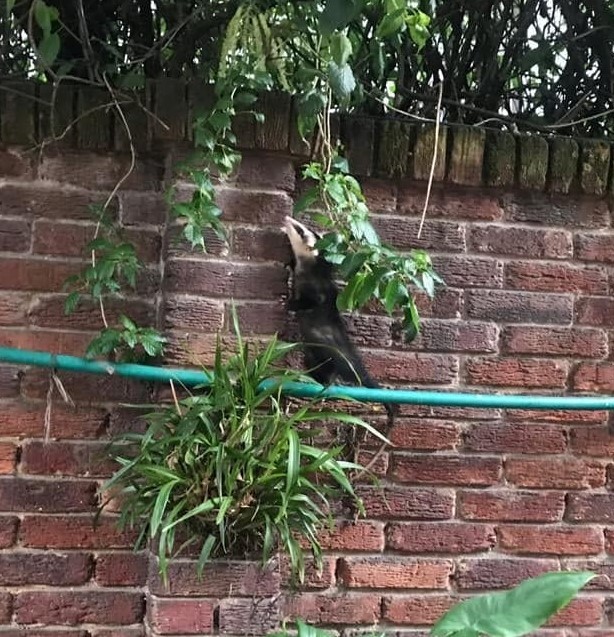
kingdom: Animalia
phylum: Chordata
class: Mammalia
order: Didelphimorphia
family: Didelphidae
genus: Didelphis
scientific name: Didelphis pernigra
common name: Andean white-eared opossum
